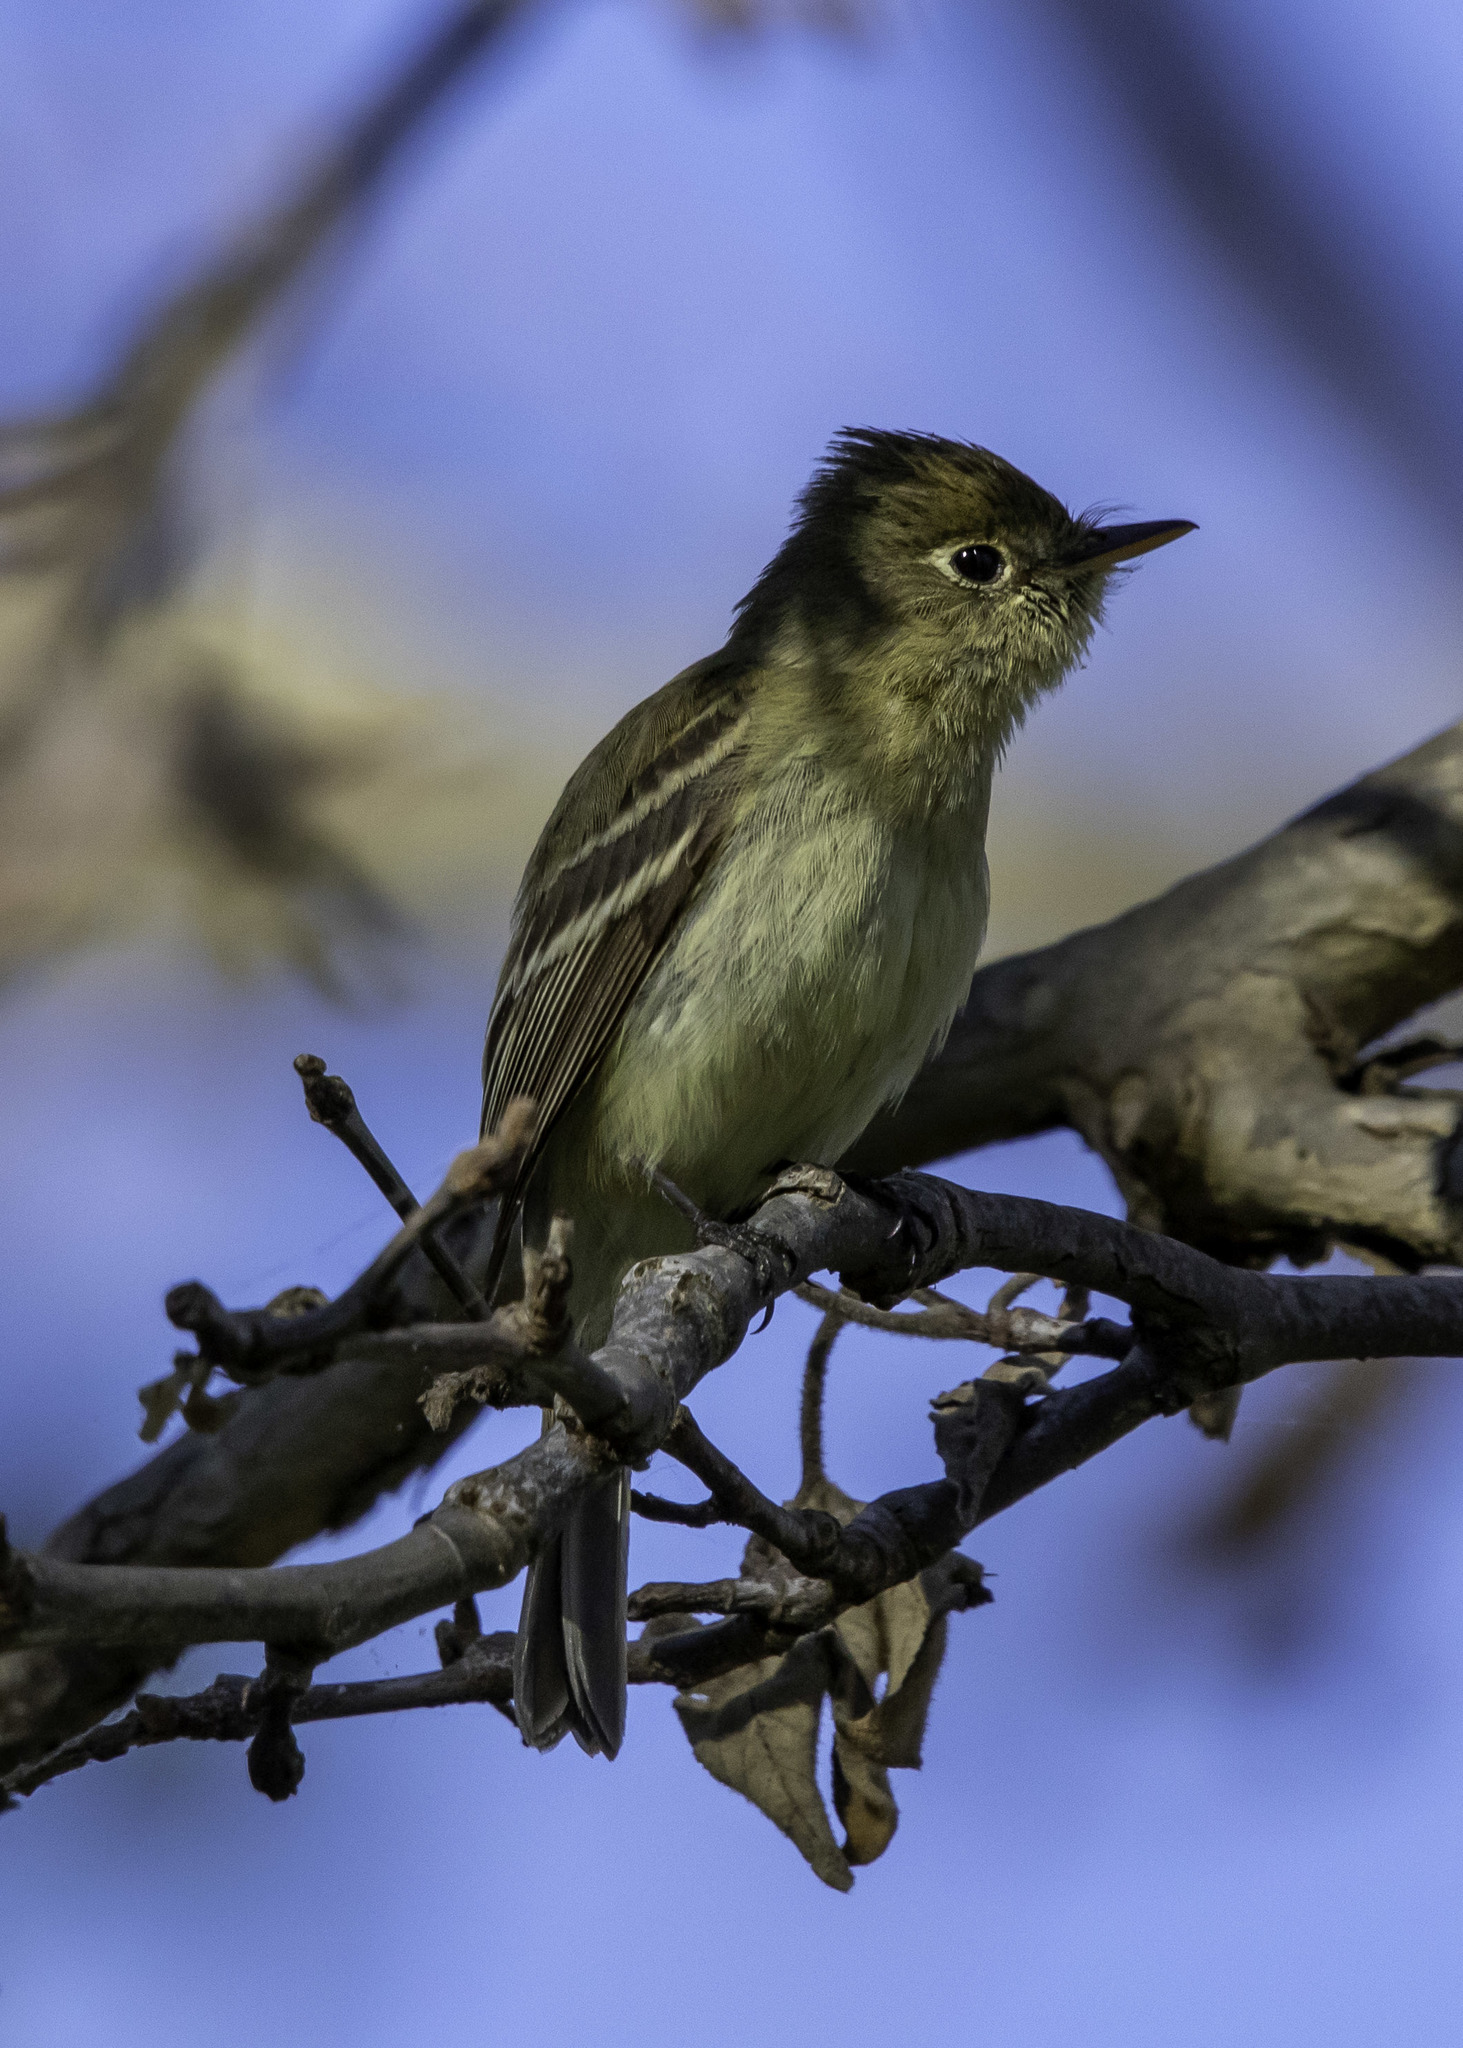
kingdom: Animalia
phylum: Chordata
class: Aves
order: Passeriformes
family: Tyrannidae
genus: Empidonax
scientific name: Empidonax difficilis
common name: Pacific-slope flycatcher
